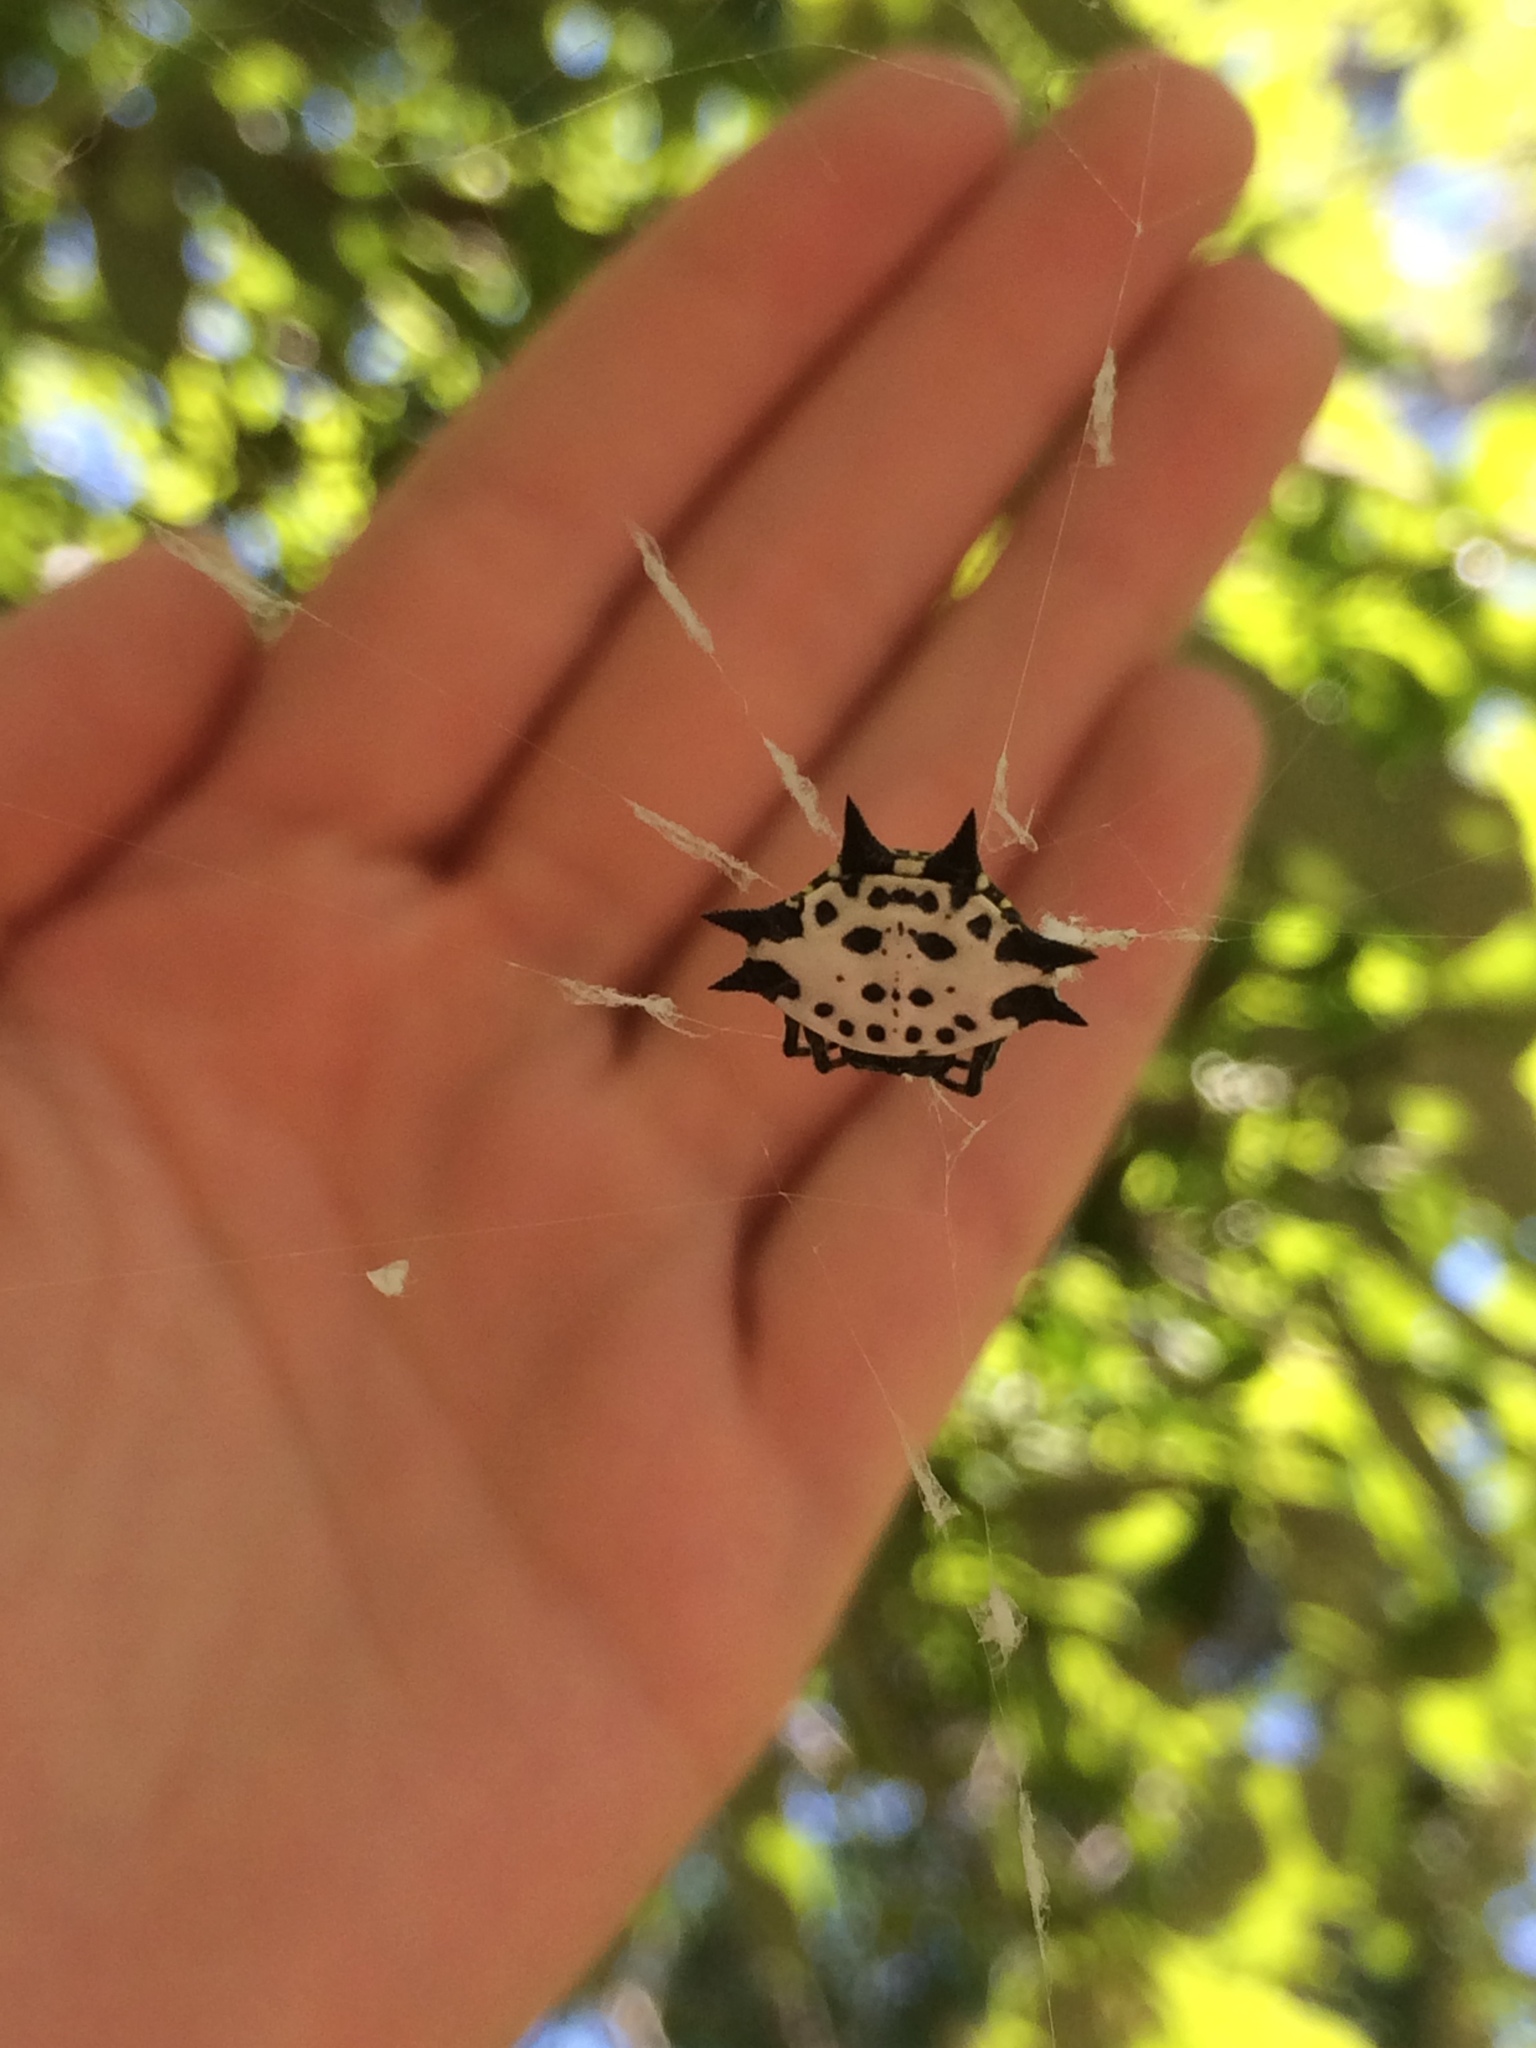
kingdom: Animalia
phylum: Arthropoda
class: Arachnida
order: Araneae
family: Araneidae
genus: Gasteracantha
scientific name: Gasteracantha cancriformis
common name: Orb weavers
